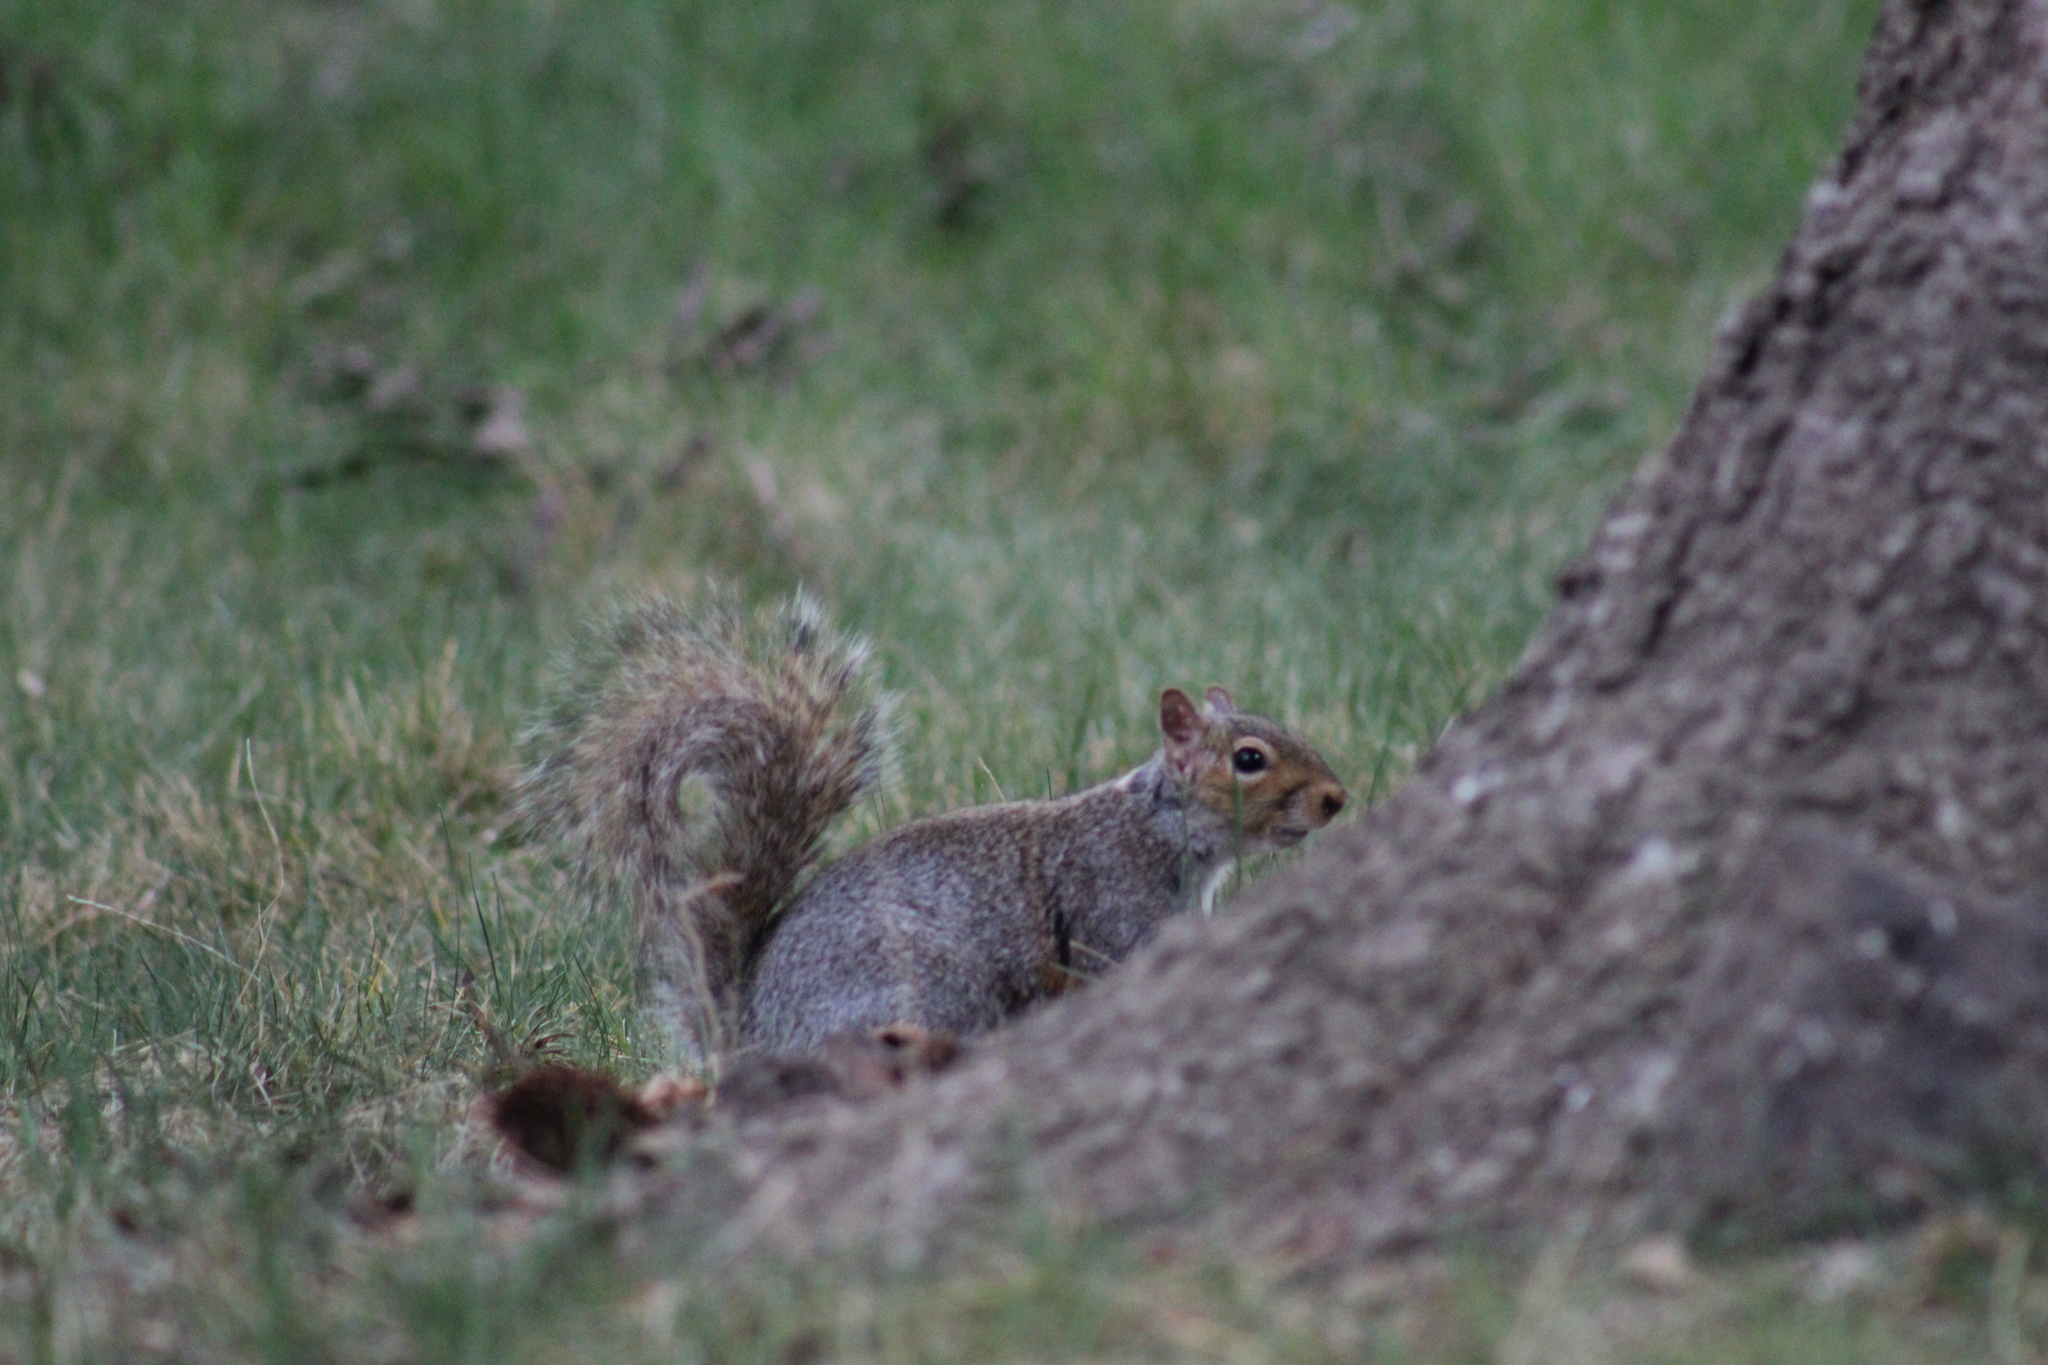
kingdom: Animalia
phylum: Chordata
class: Mammalia
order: Rodentia
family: Sciuridae
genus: Sciurus
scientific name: Sciurus carolinensis
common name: Eastern gray squirrel
